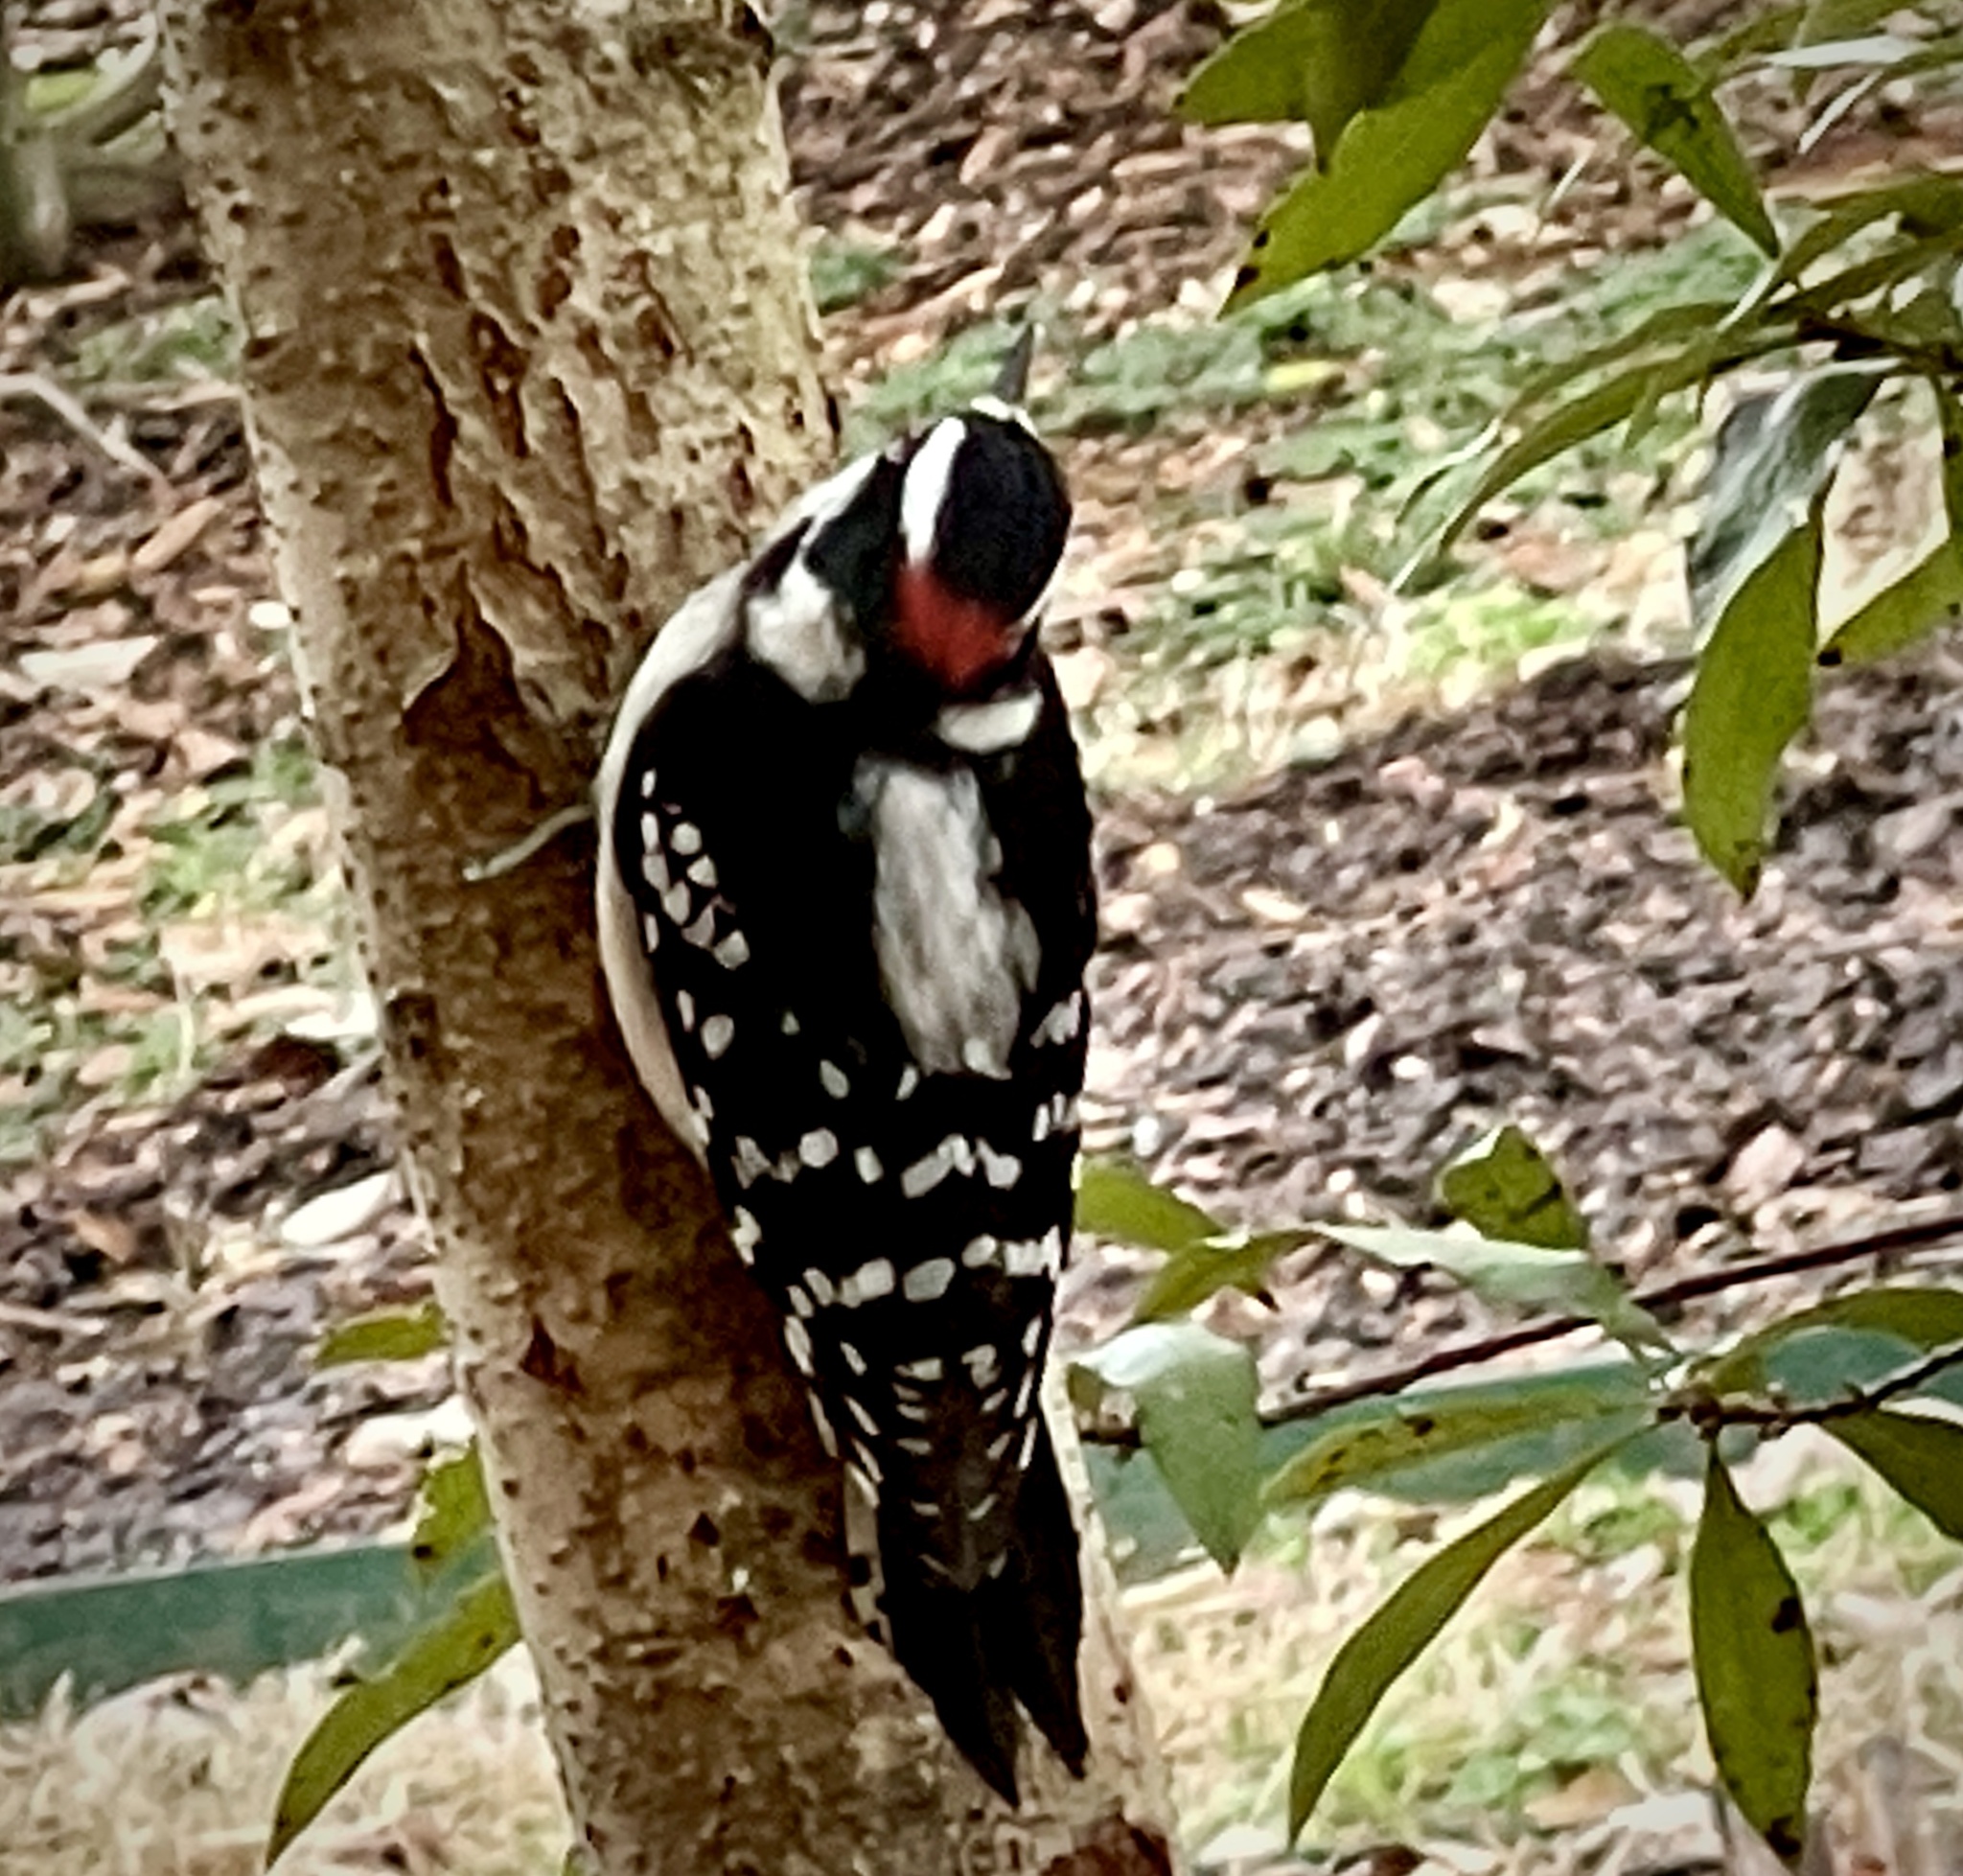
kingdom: Animalia
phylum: Chordata
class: Aves
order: Piciformes
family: Picidae
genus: Dryobates
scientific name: Dryobates pubescens
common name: Downy woodpecker
